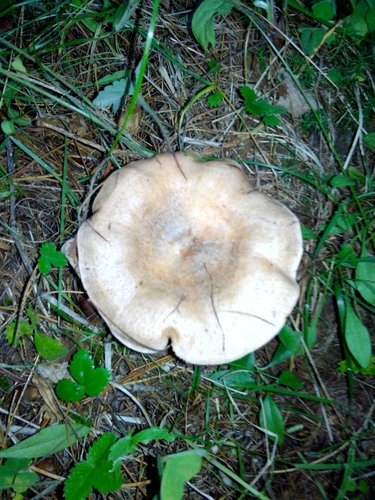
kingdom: Fungi
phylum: Basidiomycota
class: Agaricomycetes
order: Russulales
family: Russulaceae
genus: Lactarius
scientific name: Lactarius deterrimus
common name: False saffron milkcap
